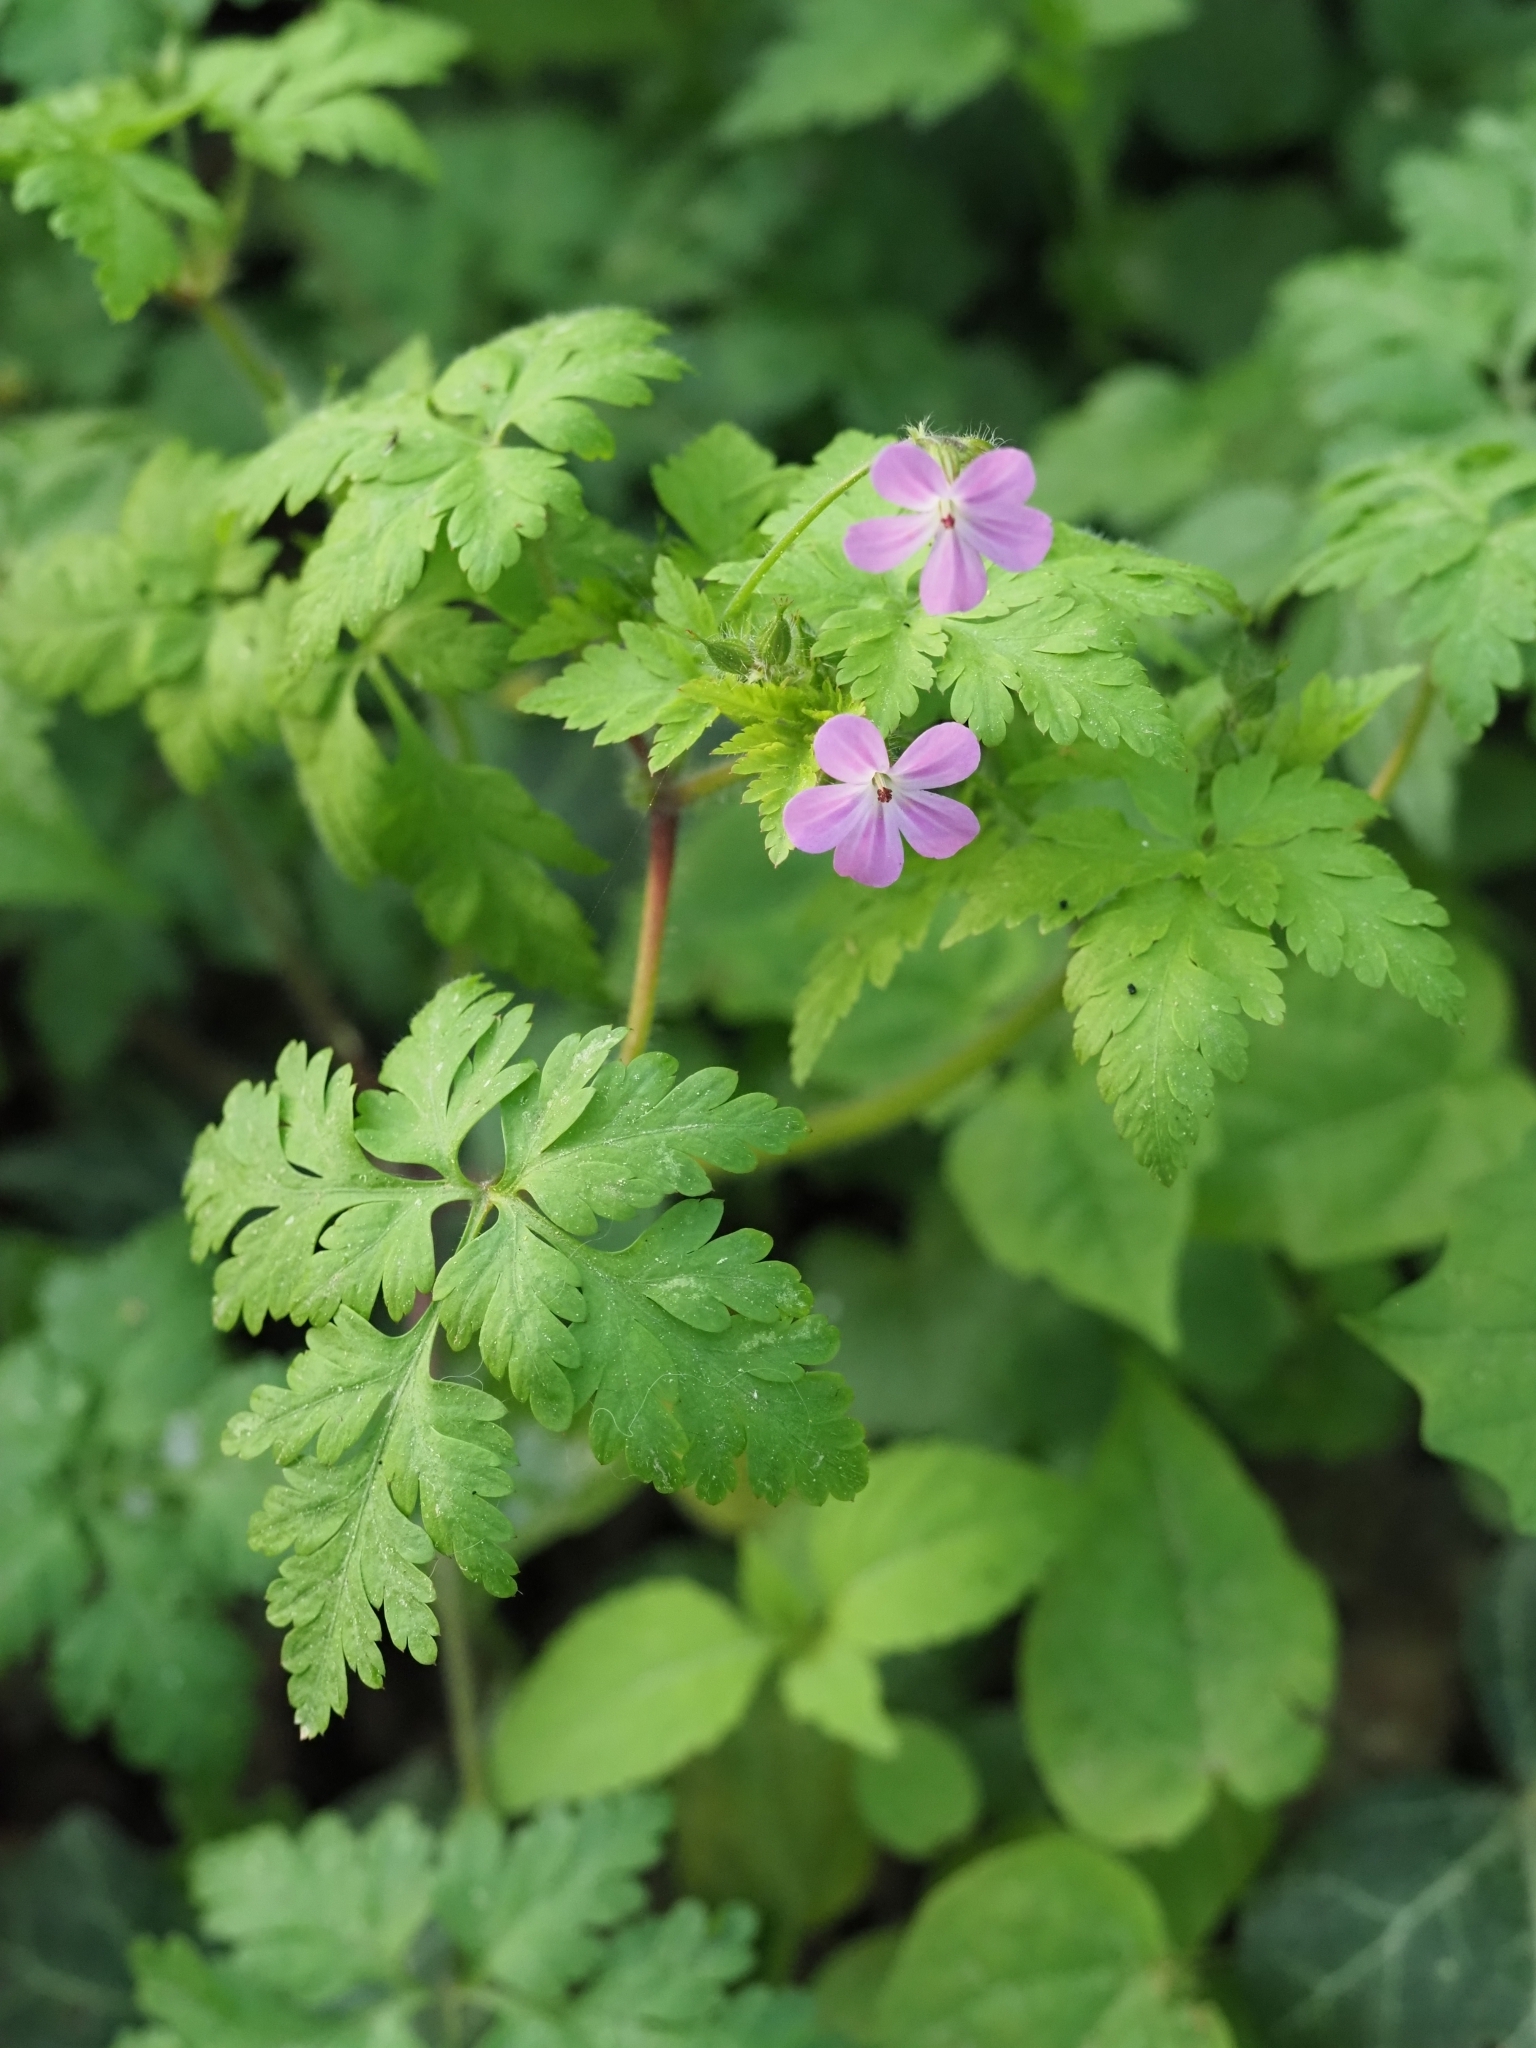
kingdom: Plantae
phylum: Tracheophyta
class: Magnoliopsida
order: Geraniales
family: Geraniaceae
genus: Geranium
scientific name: Geranium robertianum
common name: Herb-robert
